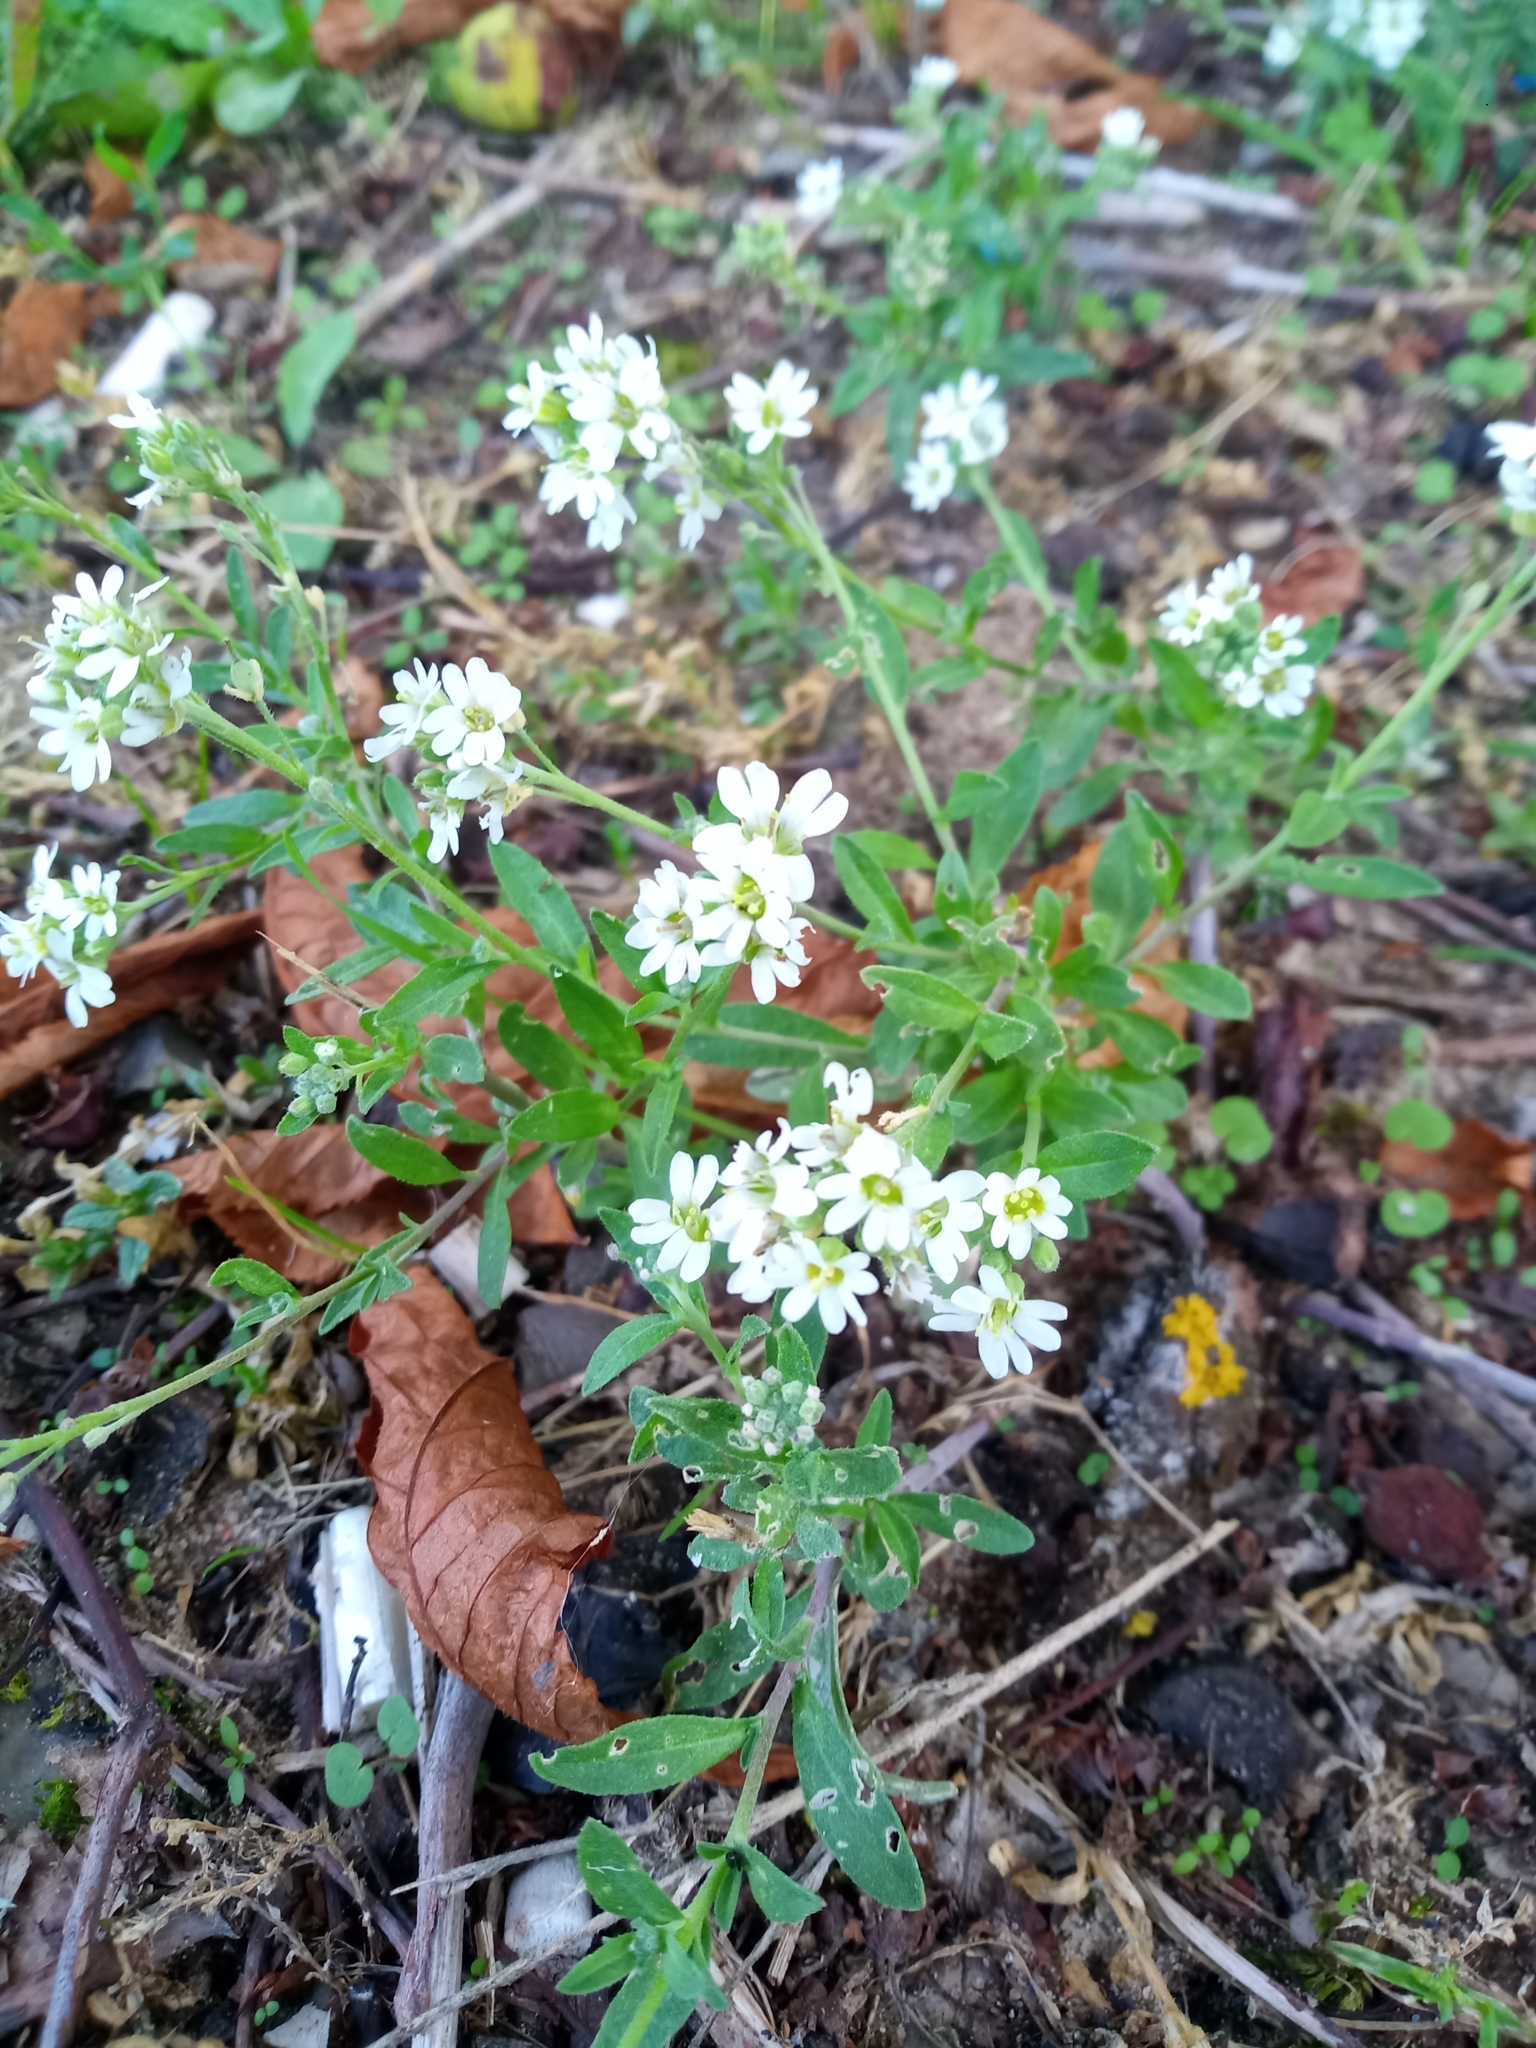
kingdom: Plantae
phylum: Tracheophyta
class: Magnoliopsida
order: Brassicales
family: Brassicaceae
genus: Berteroa
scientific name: Berteroa incana
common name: Hoary alison
